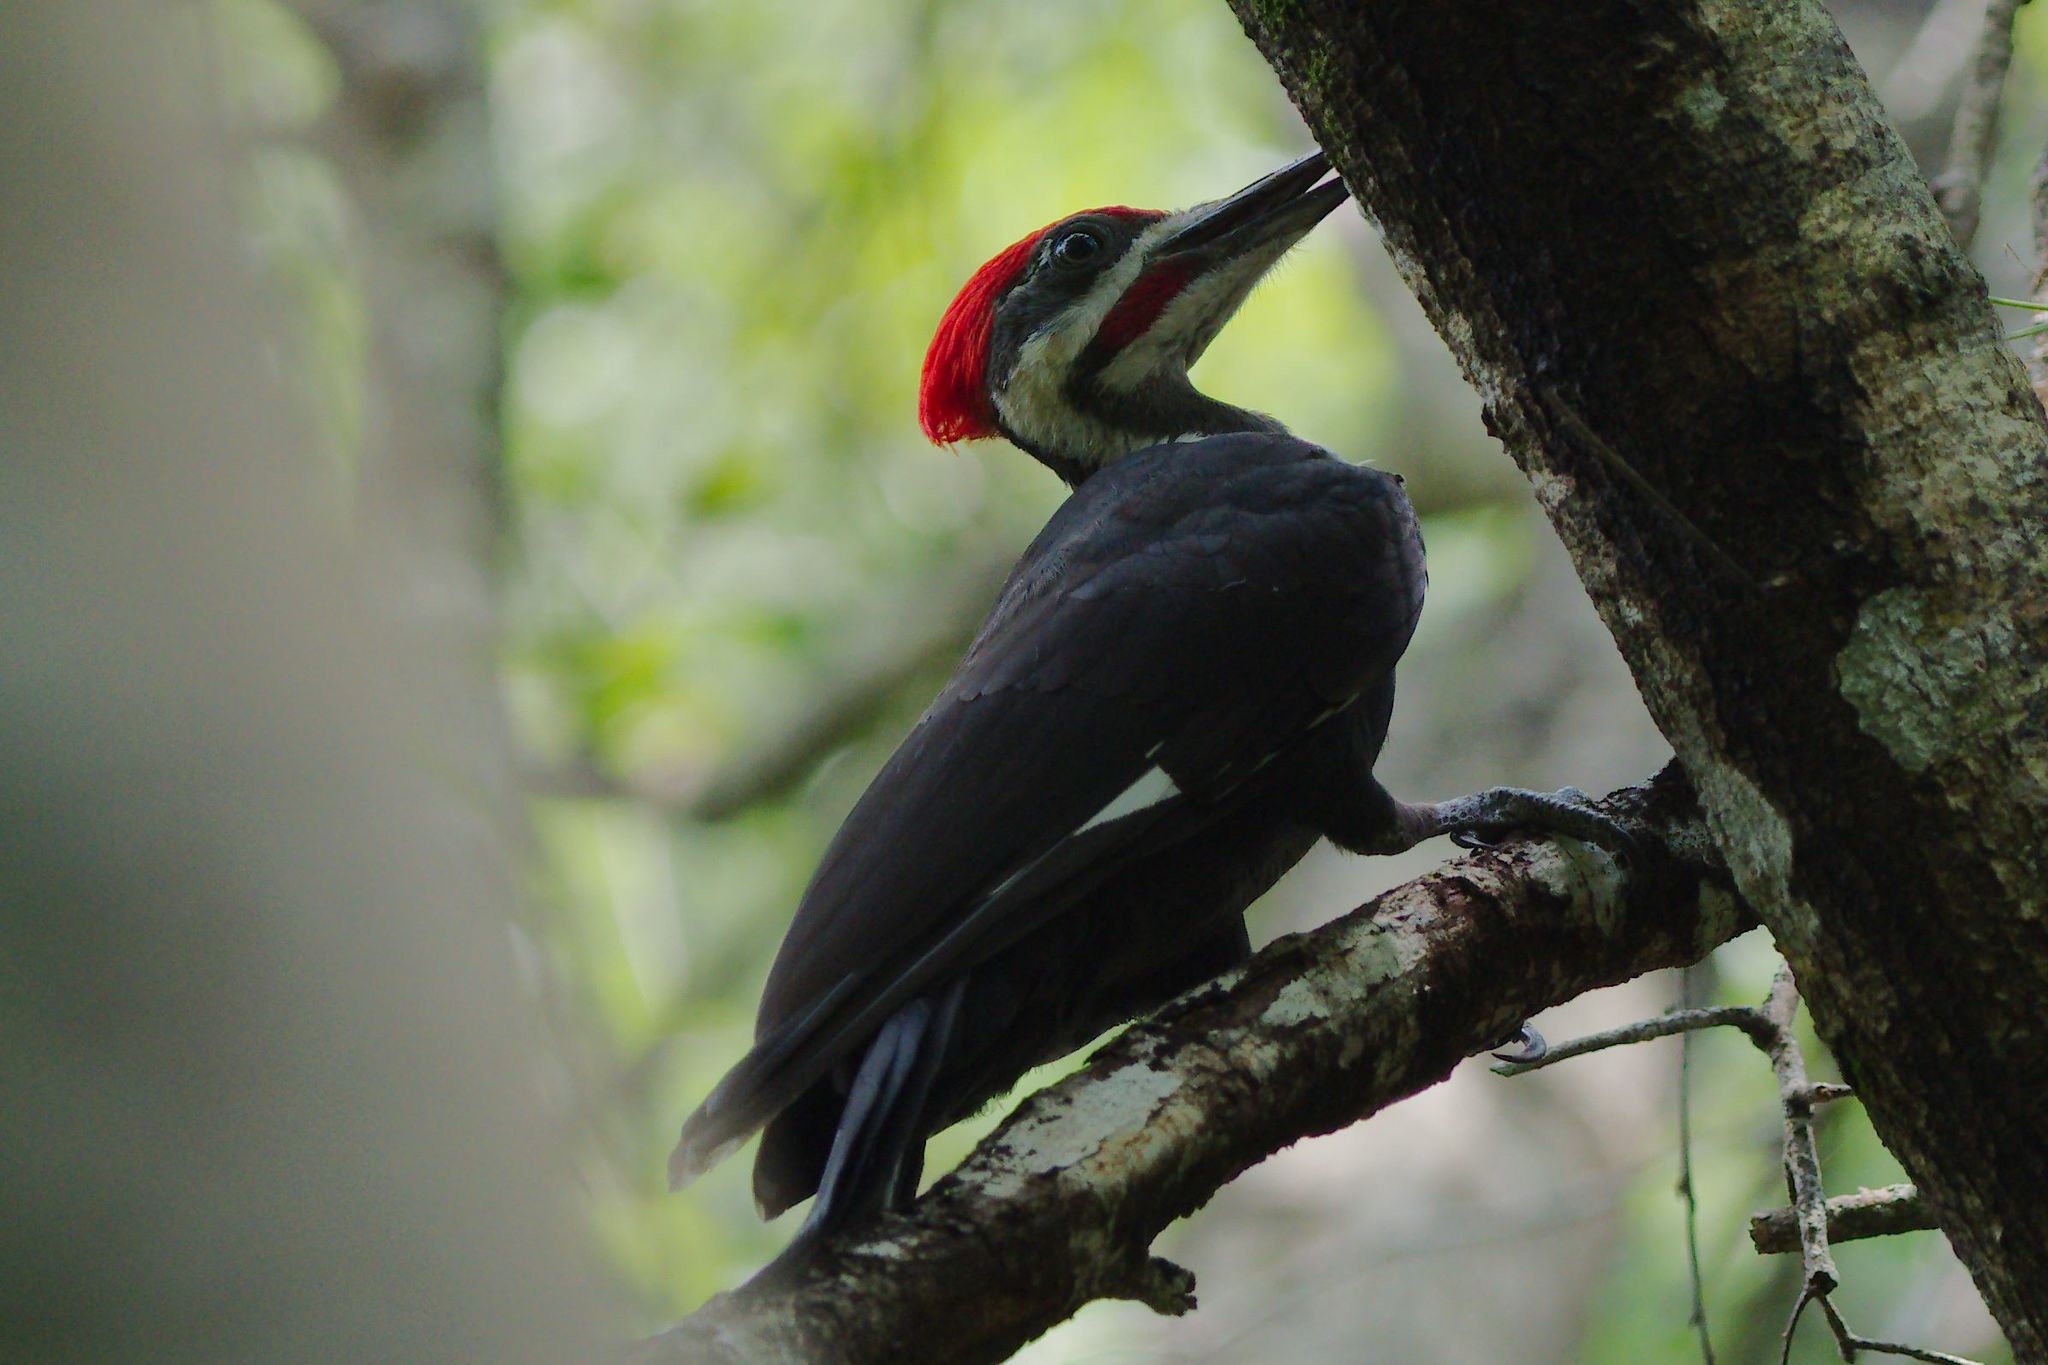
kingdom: Animalia
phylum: Chordata
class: Aves
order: Piciformes
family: Picidae
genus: Dryocopus
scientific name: Dryocopus pileatus
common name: Pileated woodpecker
